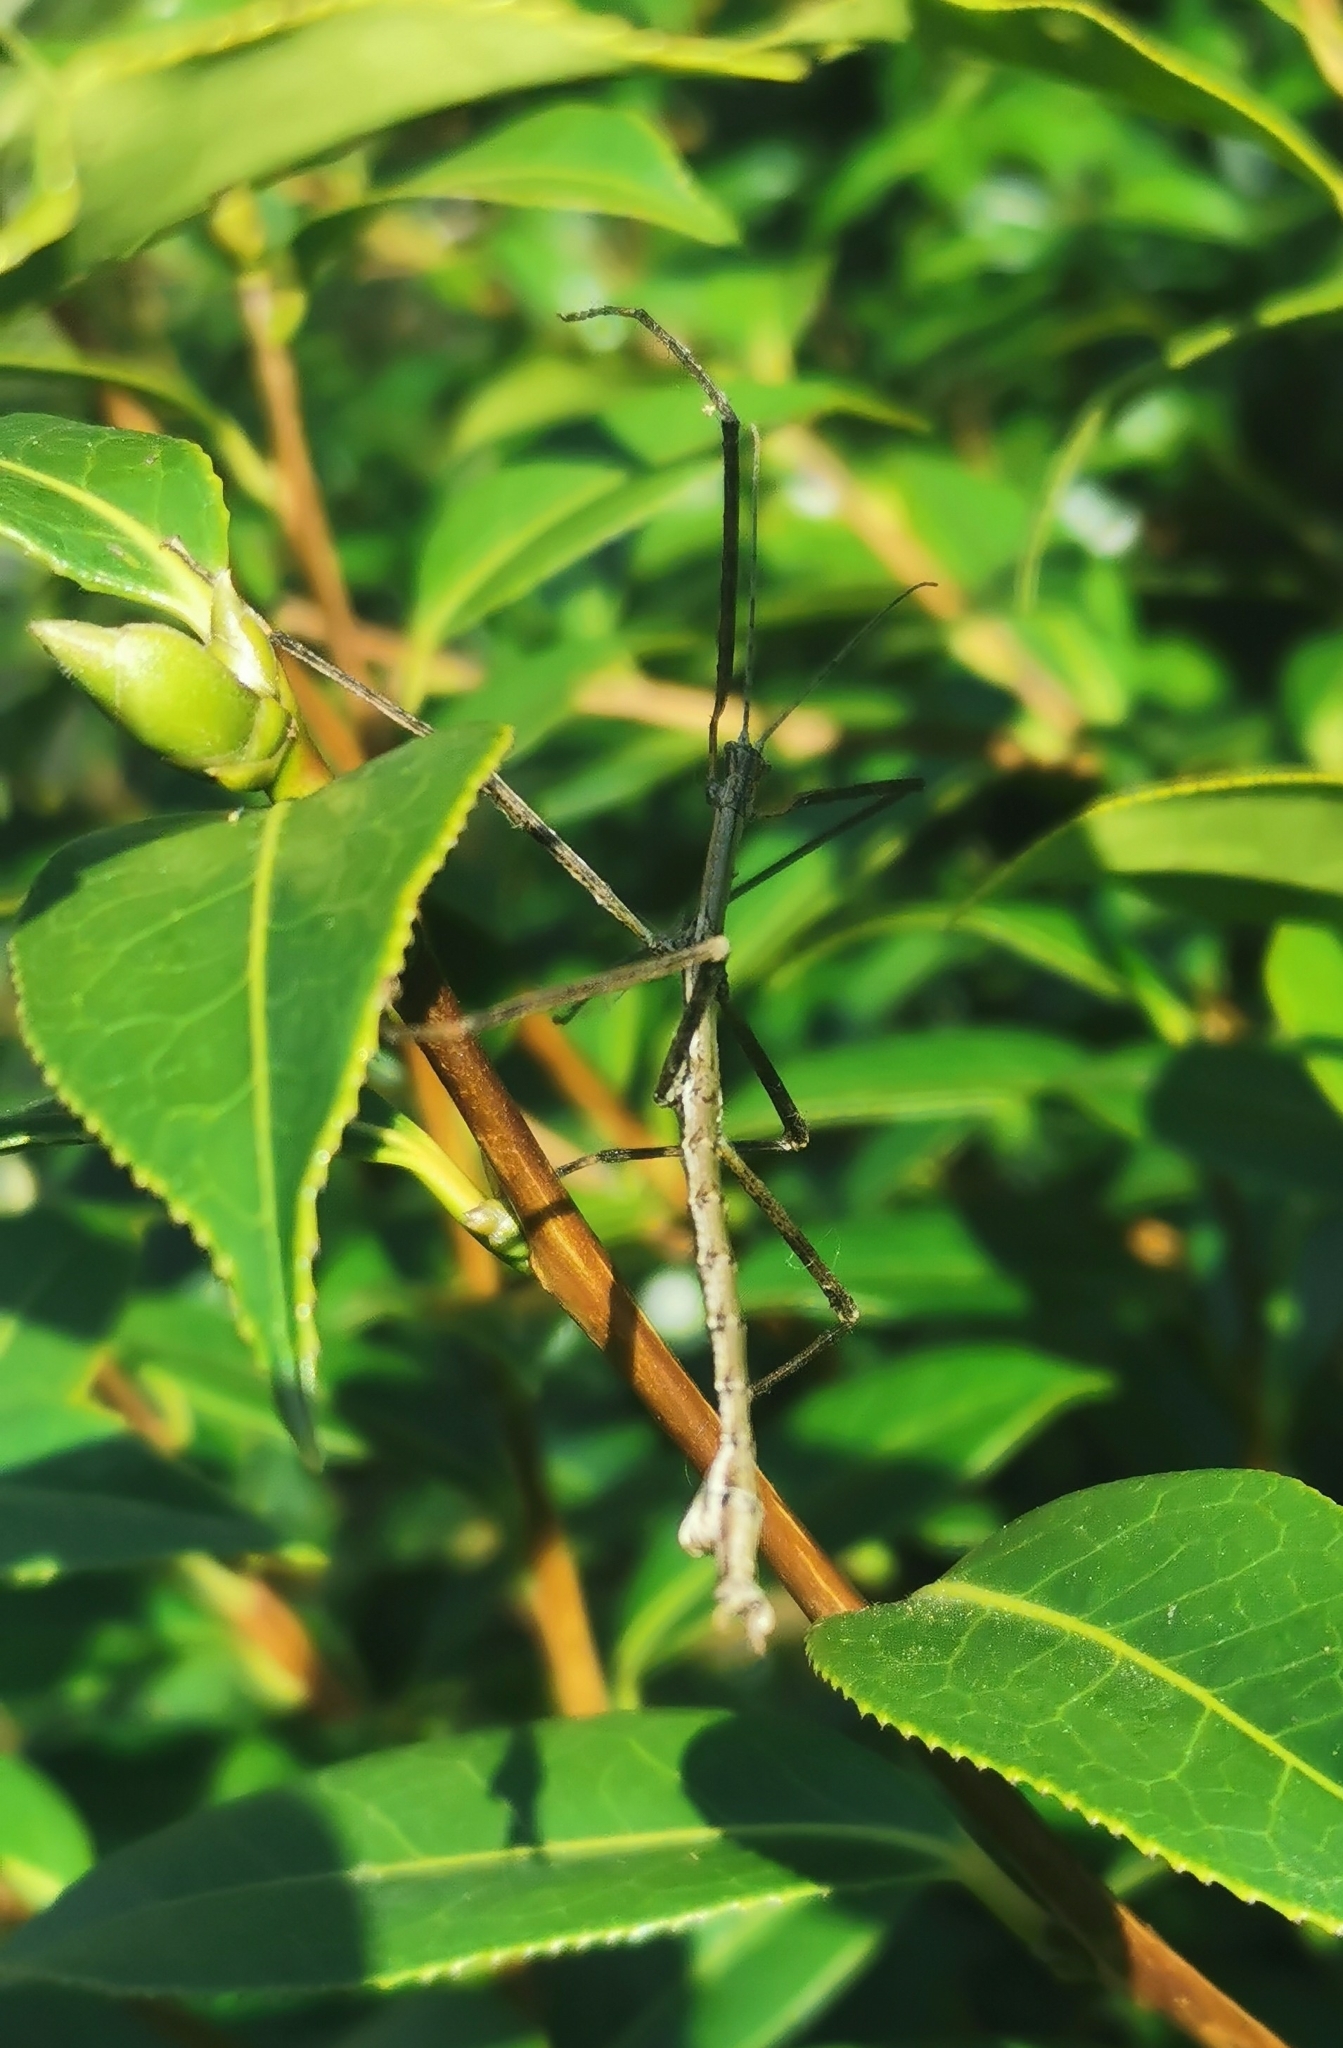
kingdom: Animalia
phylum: Arthropoda
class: Insecta
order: Phasmida
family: Phasmatidae
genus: Clitarchus
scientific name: Clitarchus hookeri
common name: Smooth stick insect
